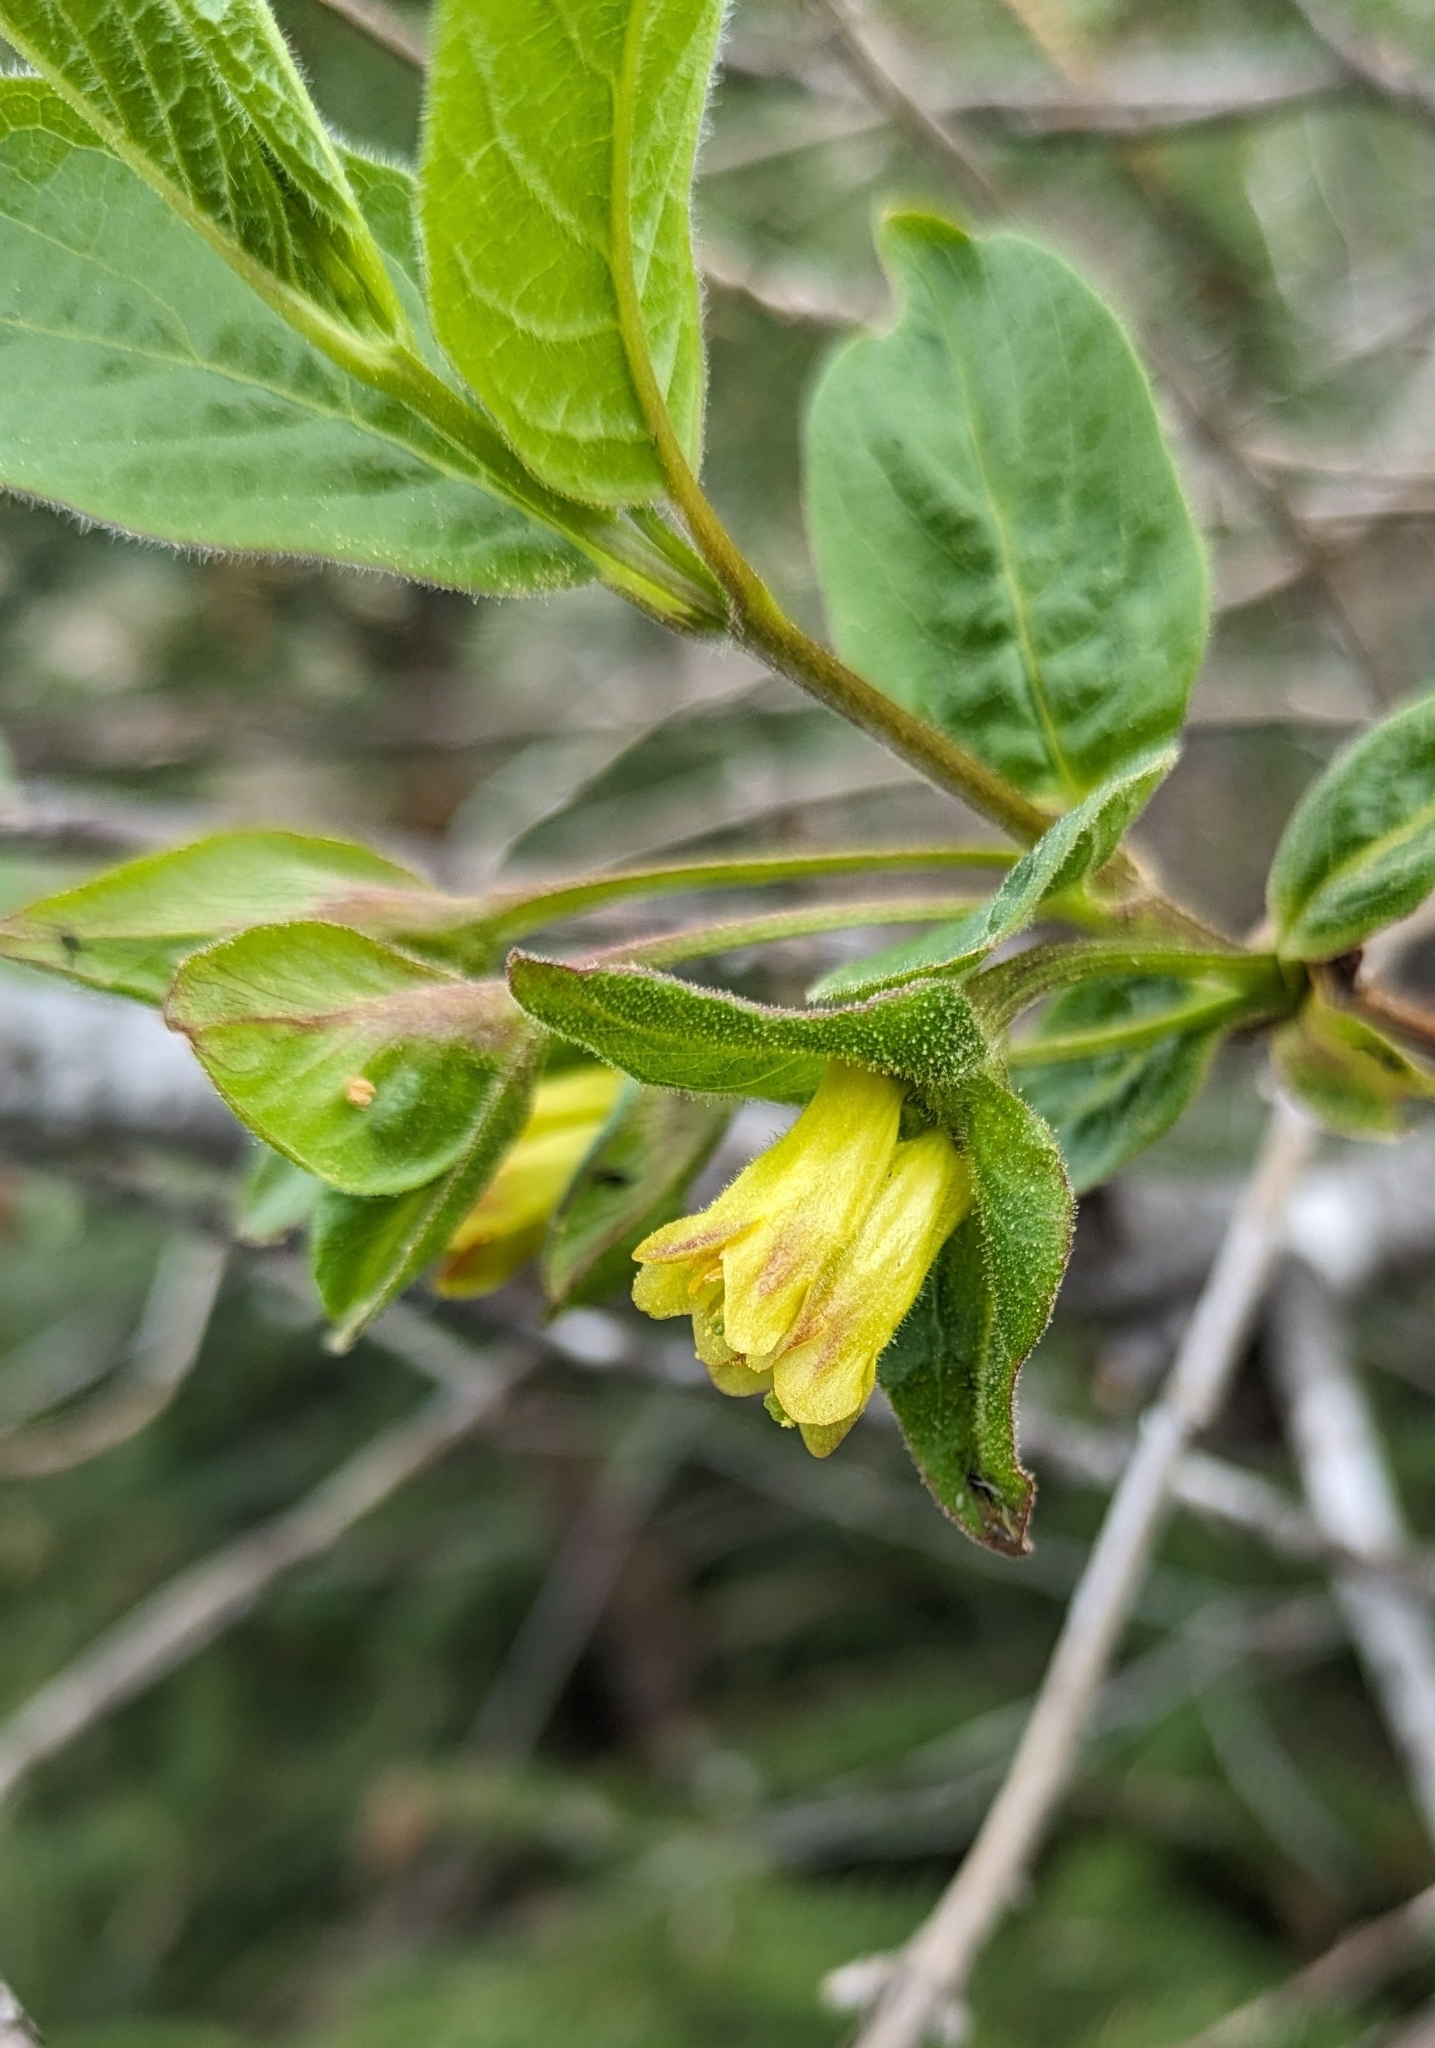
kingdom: Plantae
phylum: Tracheophyta
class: Magnoliopsida
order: Dipsacales
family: Caprifoliaceae
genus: Lonicera
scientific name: Lonicera involucrata
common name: Californian honeysuckle
